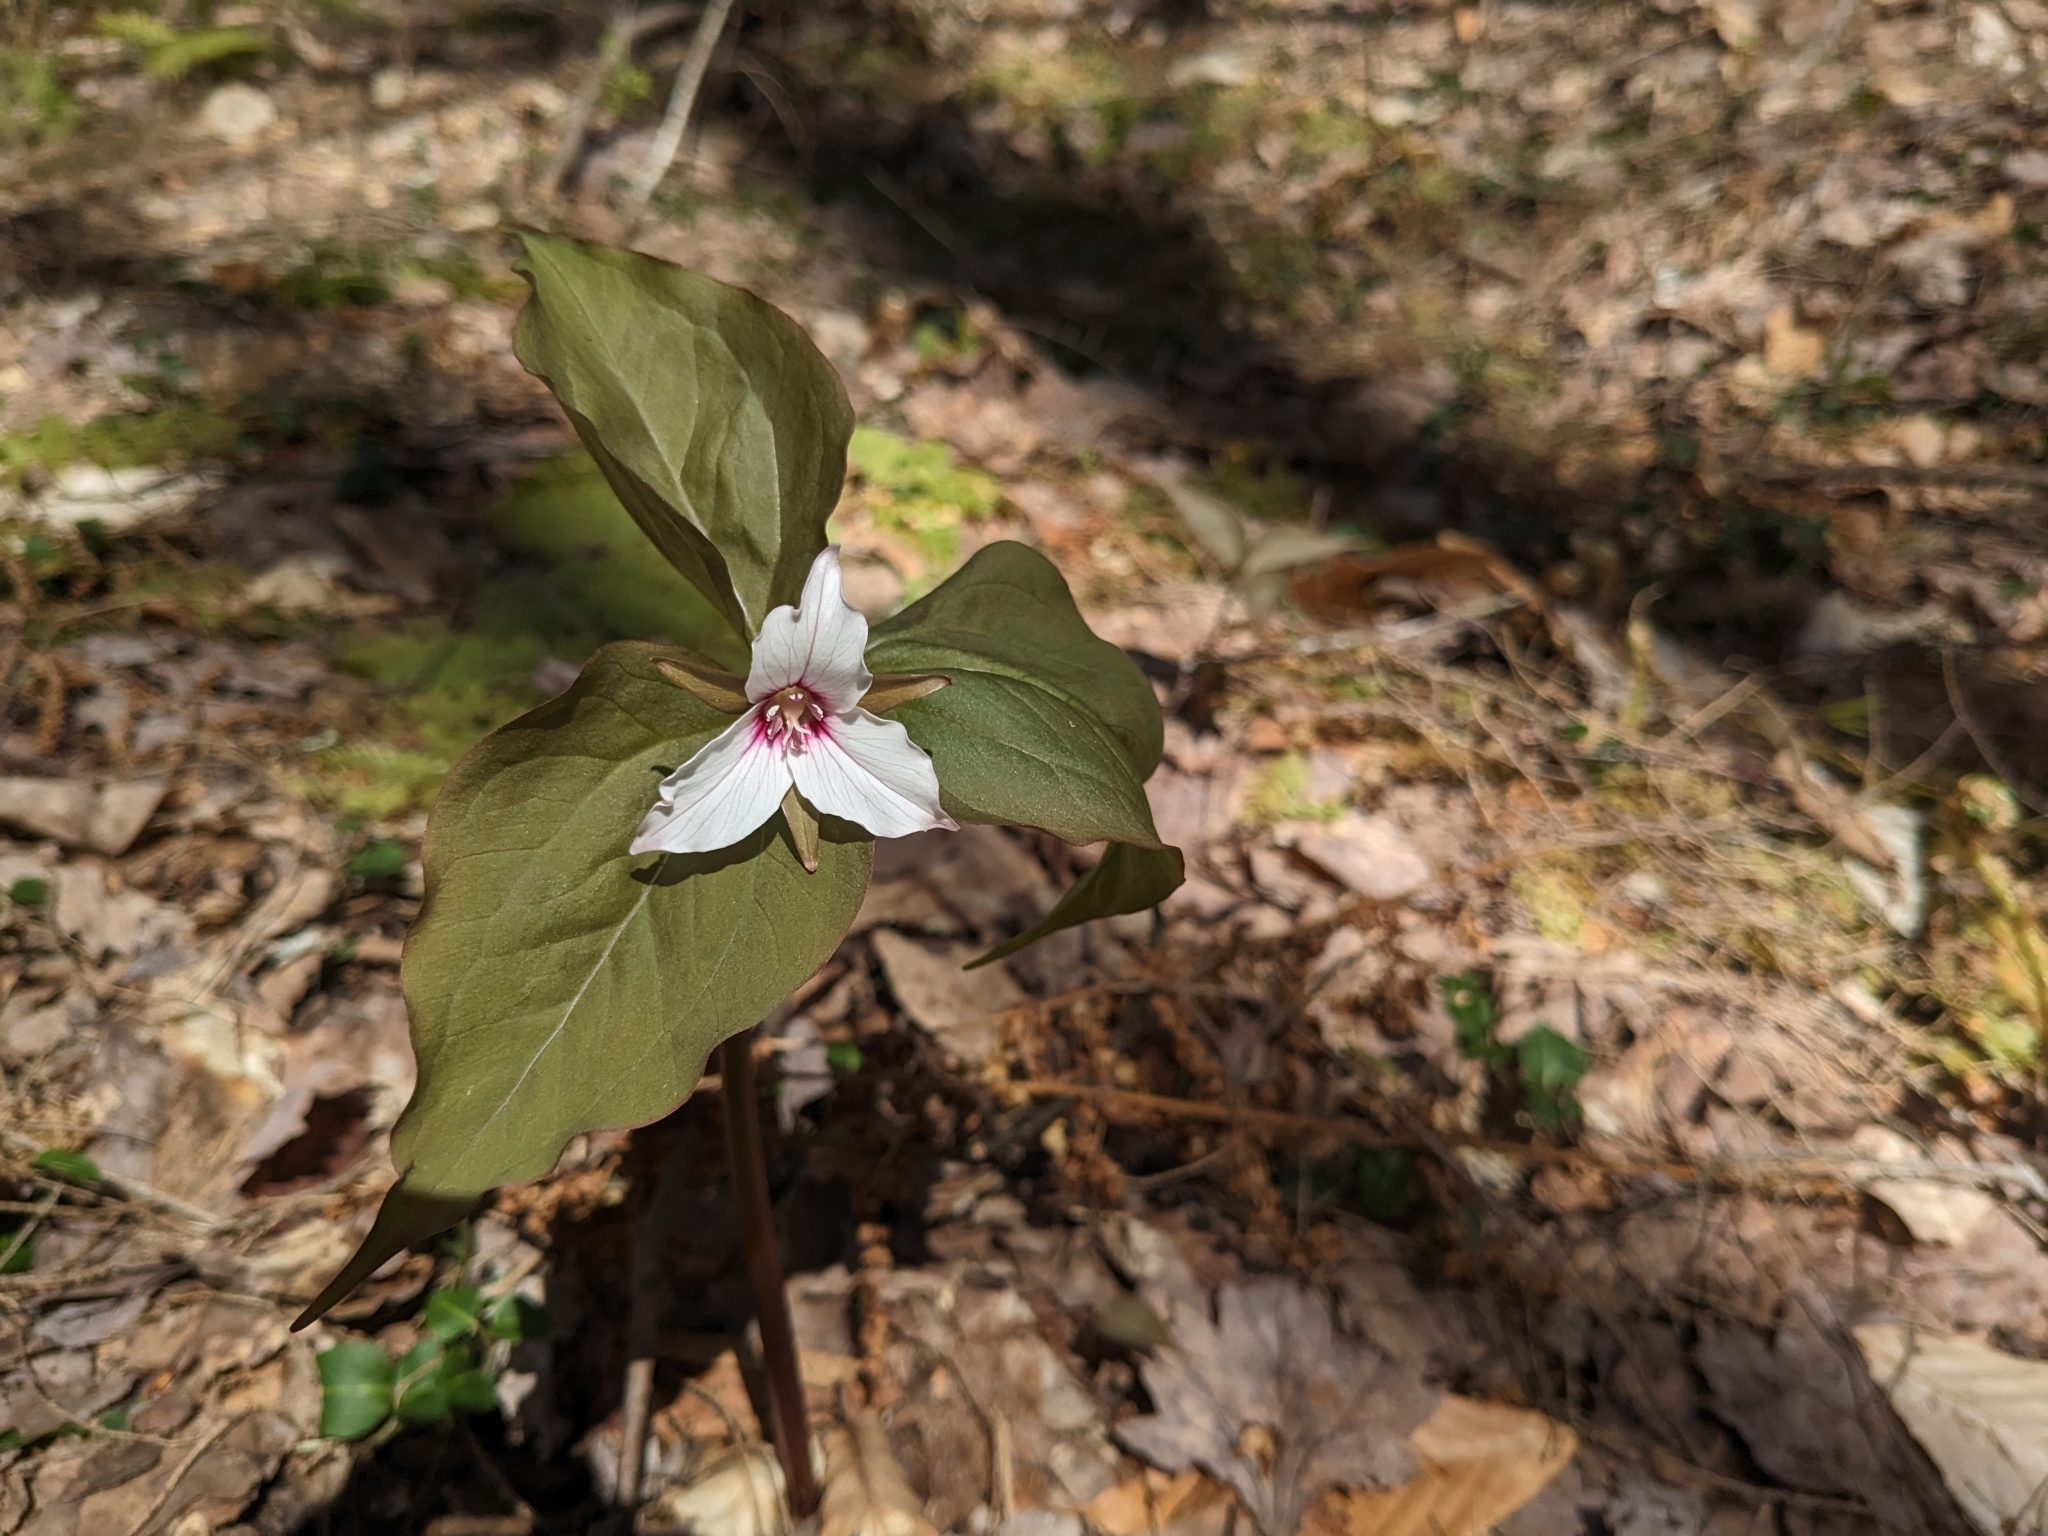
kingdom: Plantae
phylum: Tracheophyta
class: Liliopsida
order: Liliales
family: Melanthiaceae
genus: Trillium
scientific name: Trillium undulatum
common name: Paint trillium
